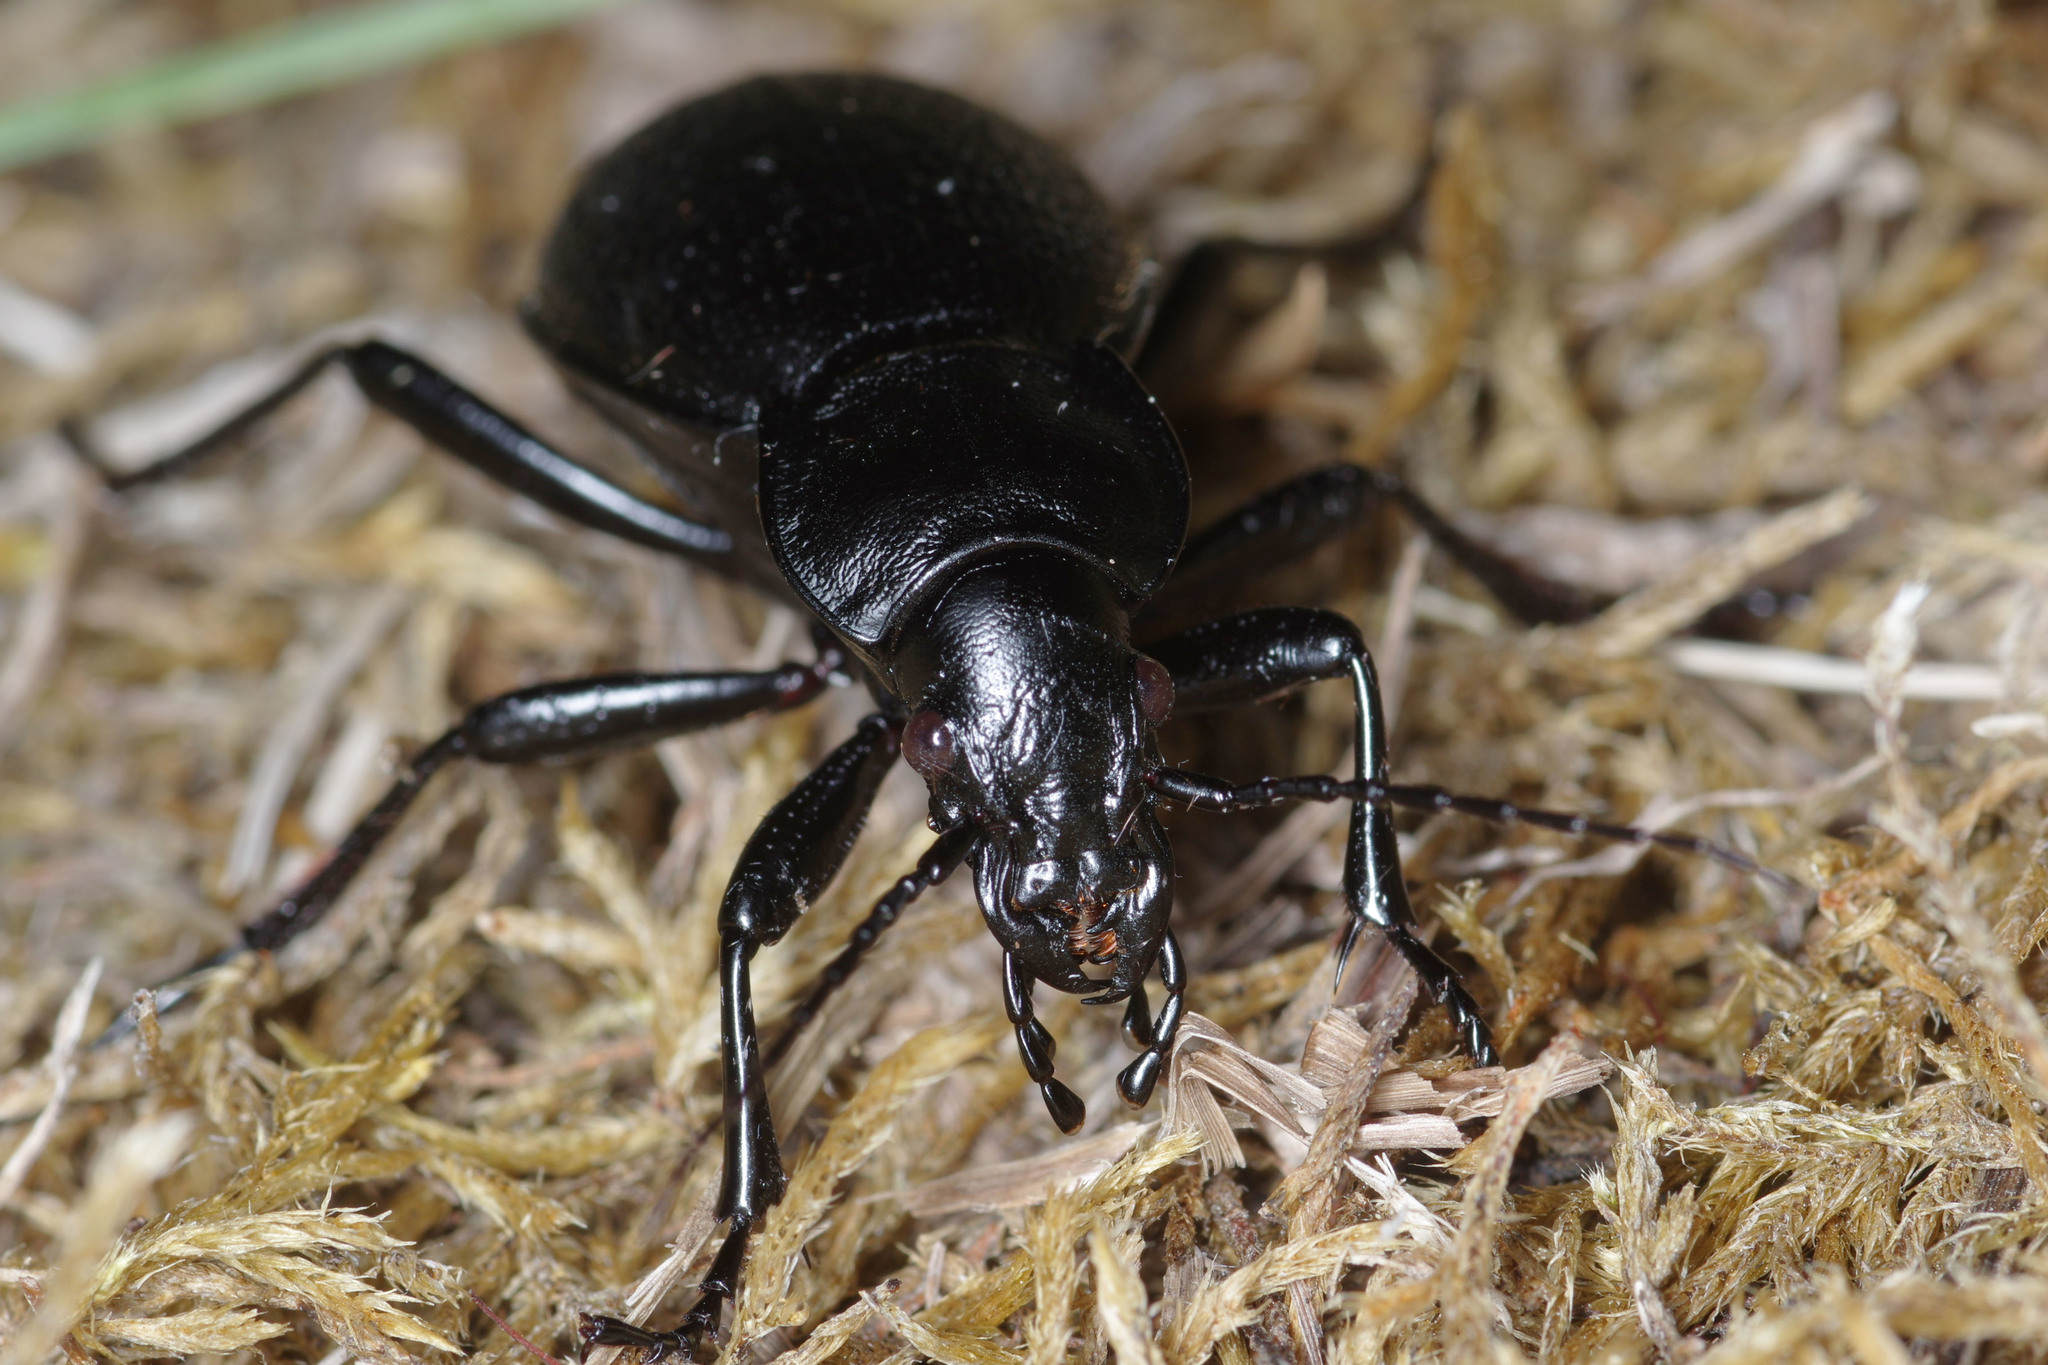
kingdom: Animalia
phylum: Arthropoda
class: Insecta
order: Coleoptera
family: Carabidae
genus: Carabus
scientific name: Carabus coriaceus
